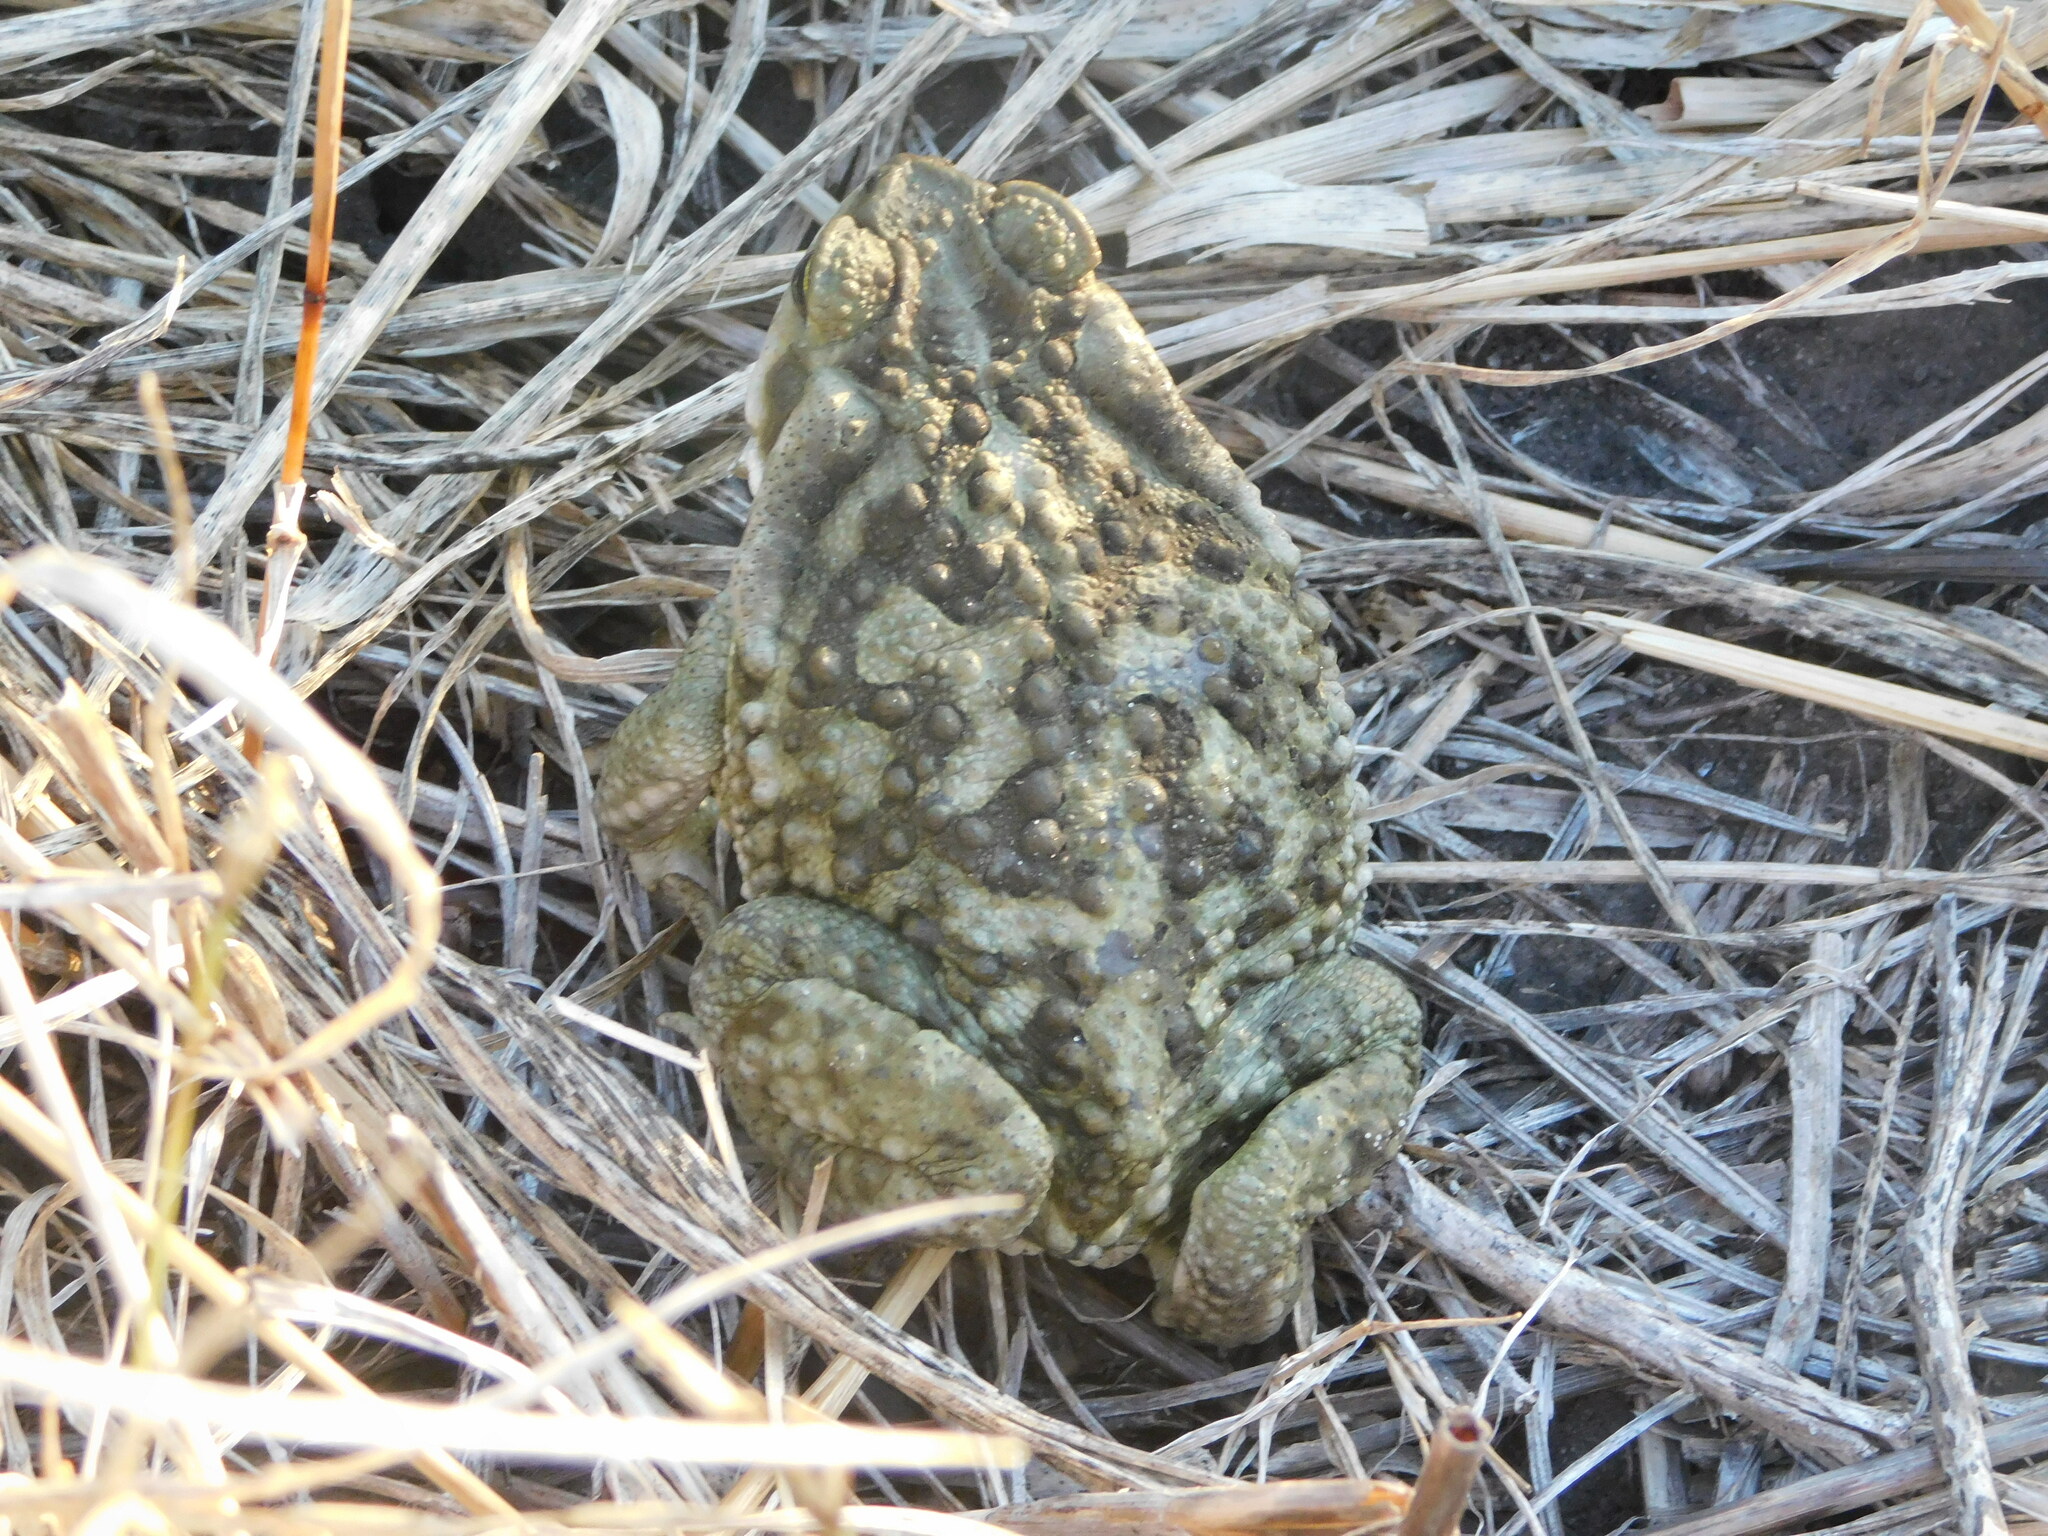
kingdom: Animalia
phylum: Chordata
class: Amphibia
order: Anura
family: Bufonidae
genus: Rhinella
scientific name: Rhinella arenarum
